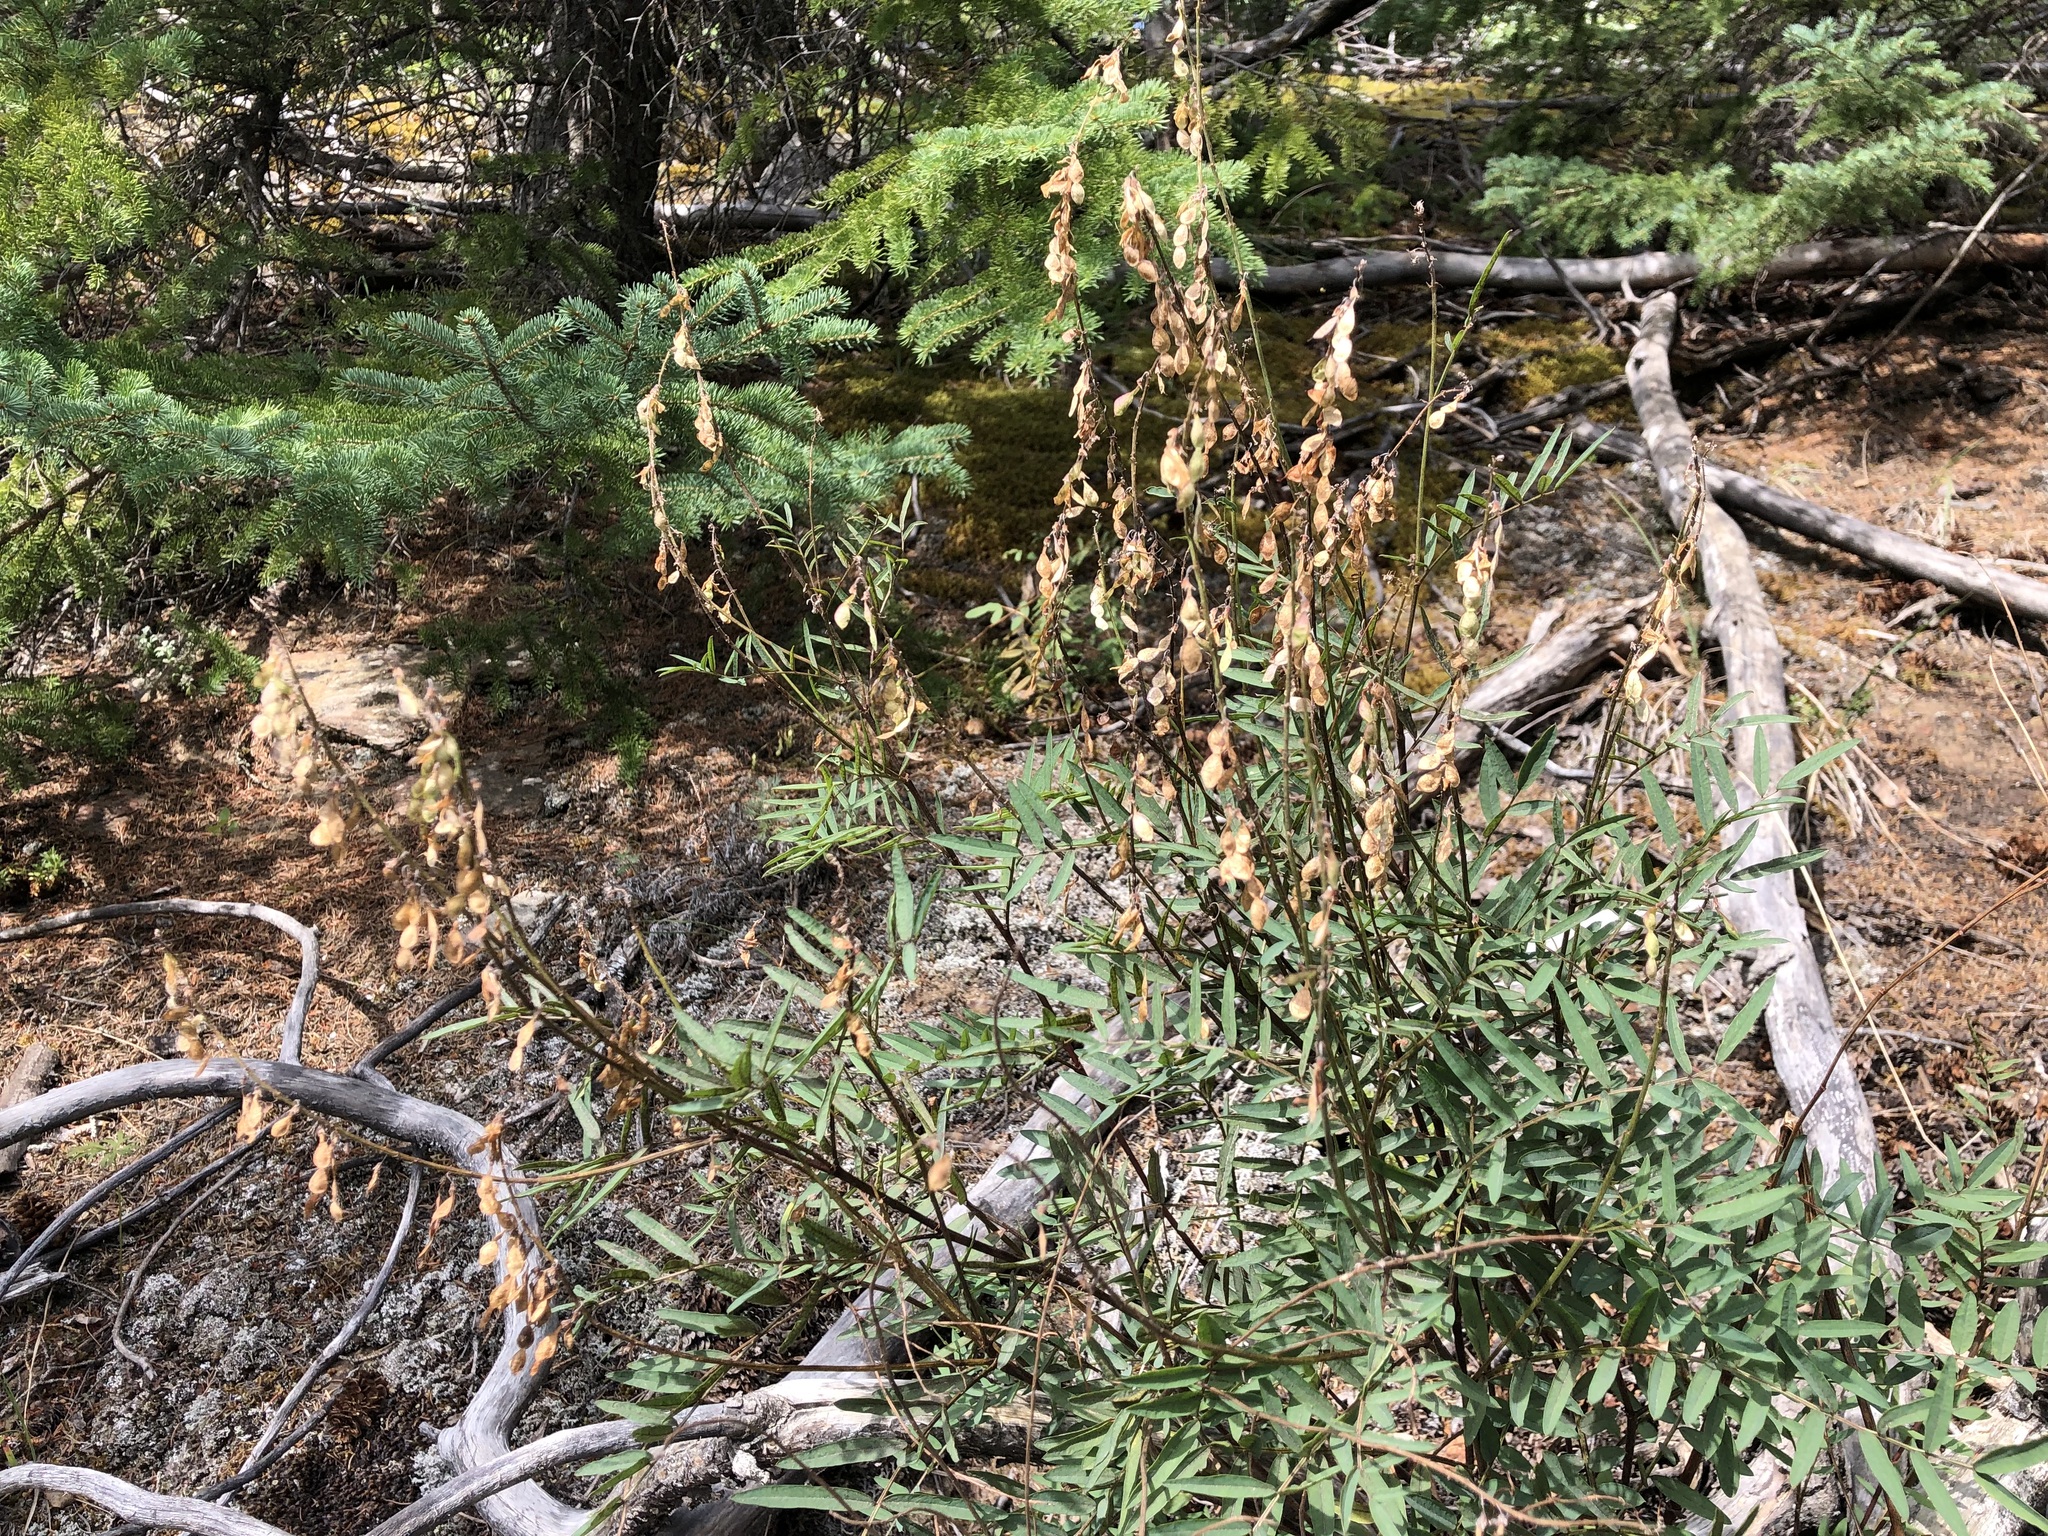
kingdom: Plantae
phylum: Tracheophyta
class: Magnoliopsida
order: Fabales
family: Fabaceae
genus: Hedysarum
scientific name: Hedysarum alpinum
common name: Alpine sweet-vetch
